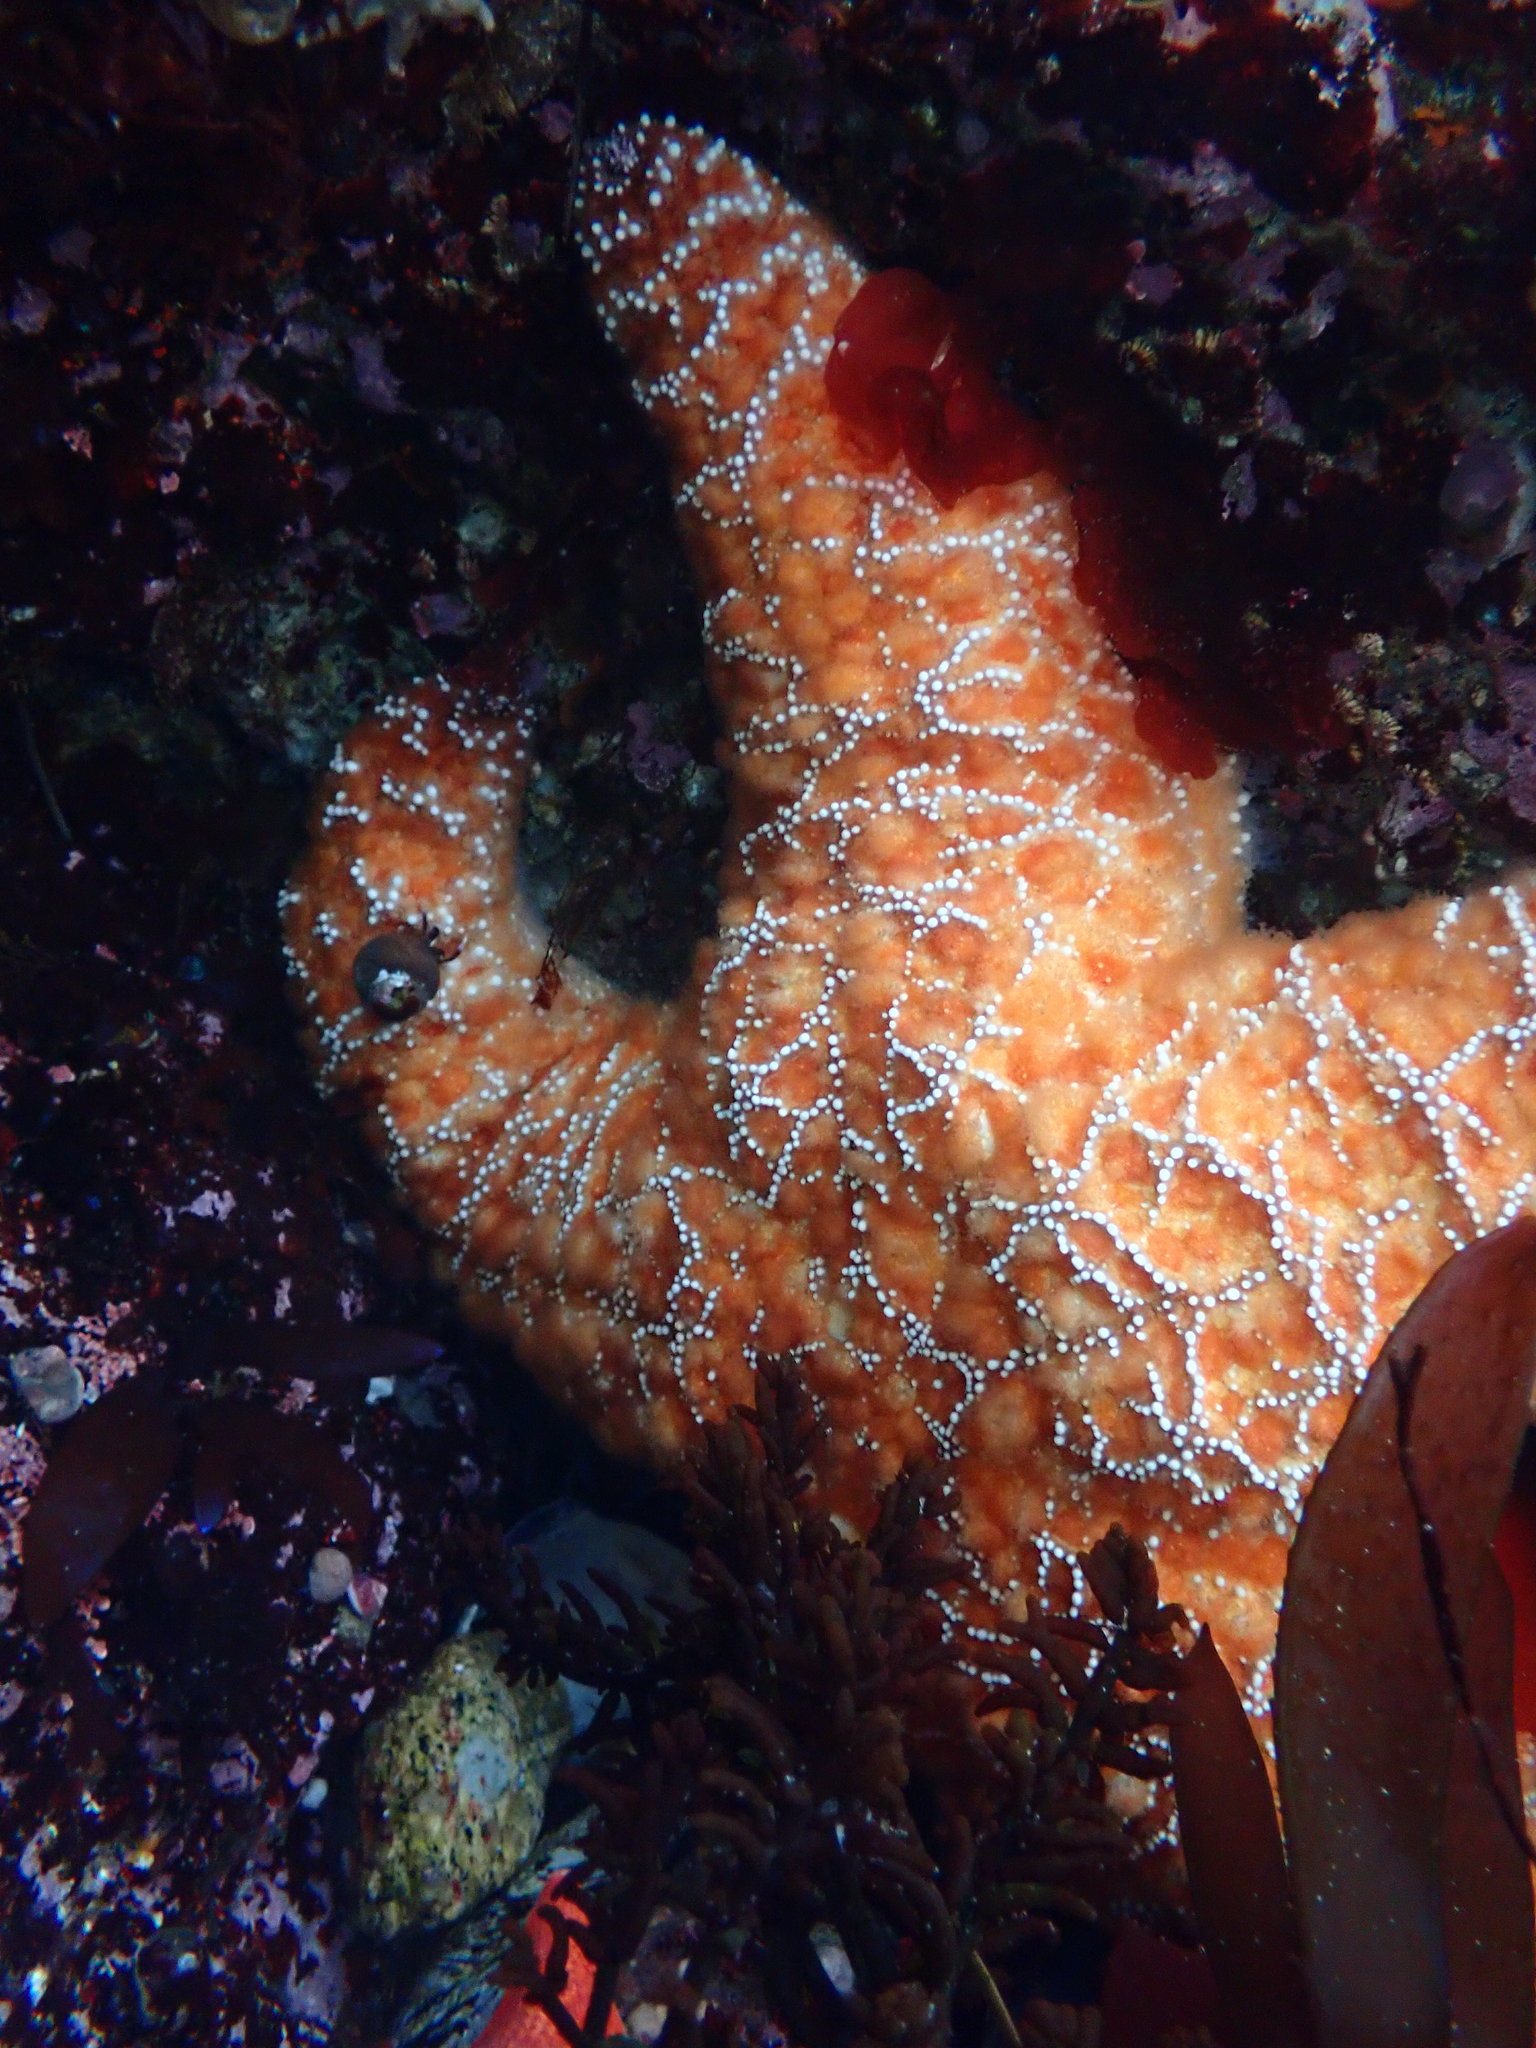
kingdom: Animalia
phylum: Echinodermata
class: Asteroidea
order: Forcipulatida
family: Asteriidae
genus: Pisaster
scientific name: Pisaster ochraceus
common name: Ochre stars
